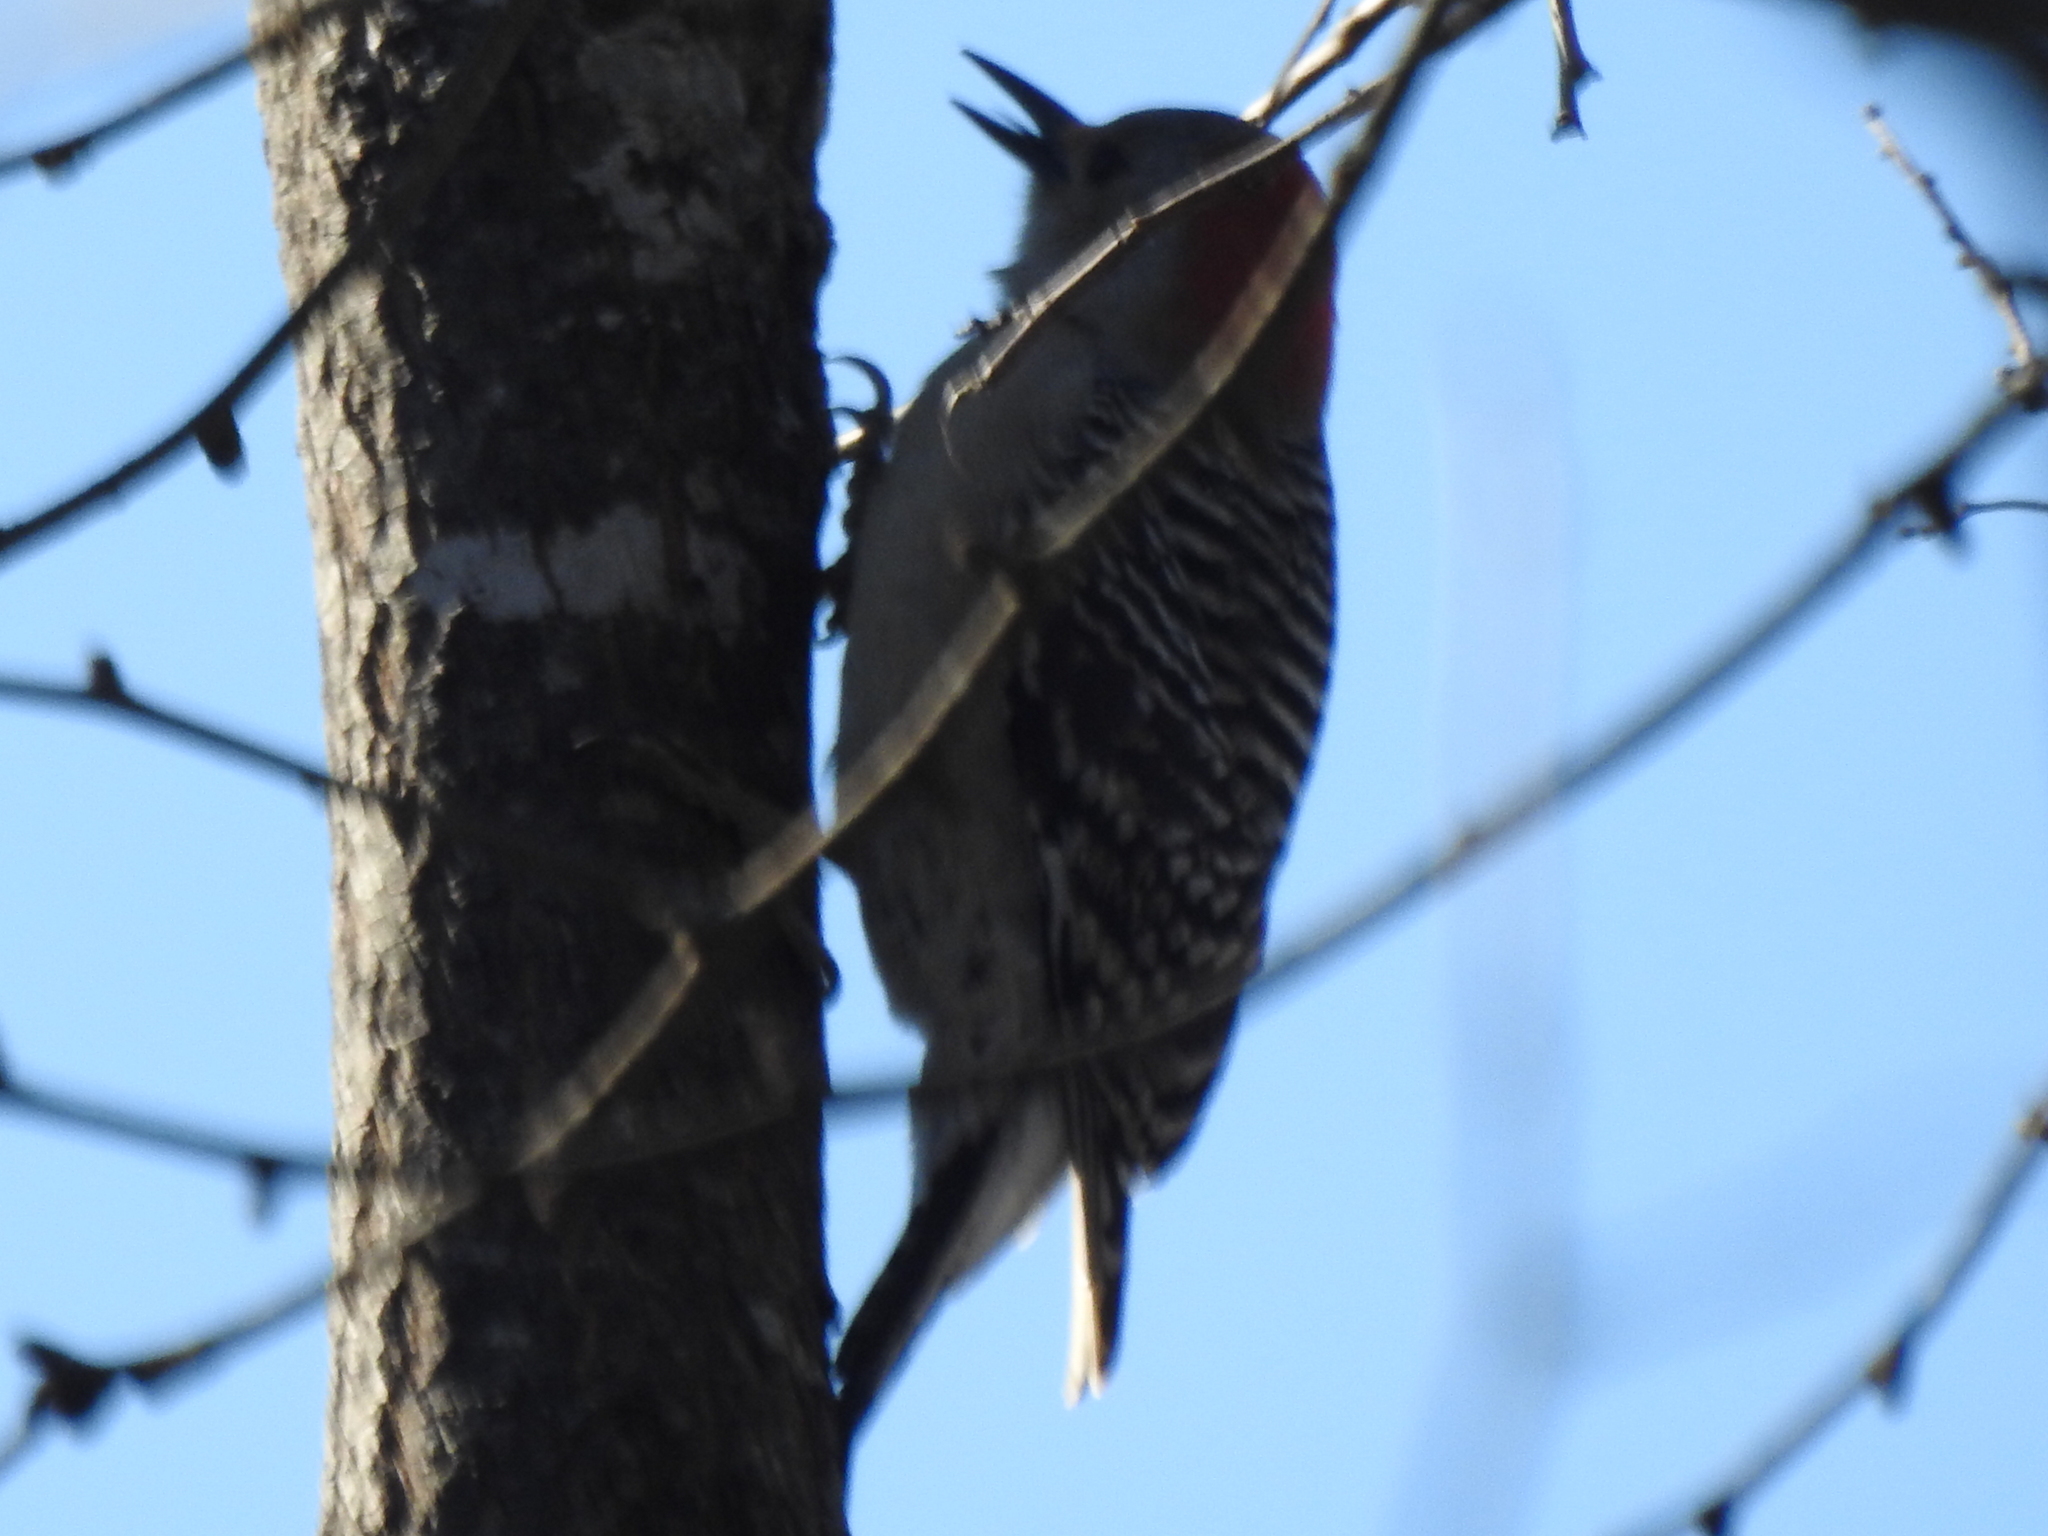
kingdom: Animalia
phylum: Chordata
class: Aves
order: Piciformes
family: Picidae
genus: Melanerpes
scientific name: Melanerpes carolinus
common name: Red-bellied woodpecker
